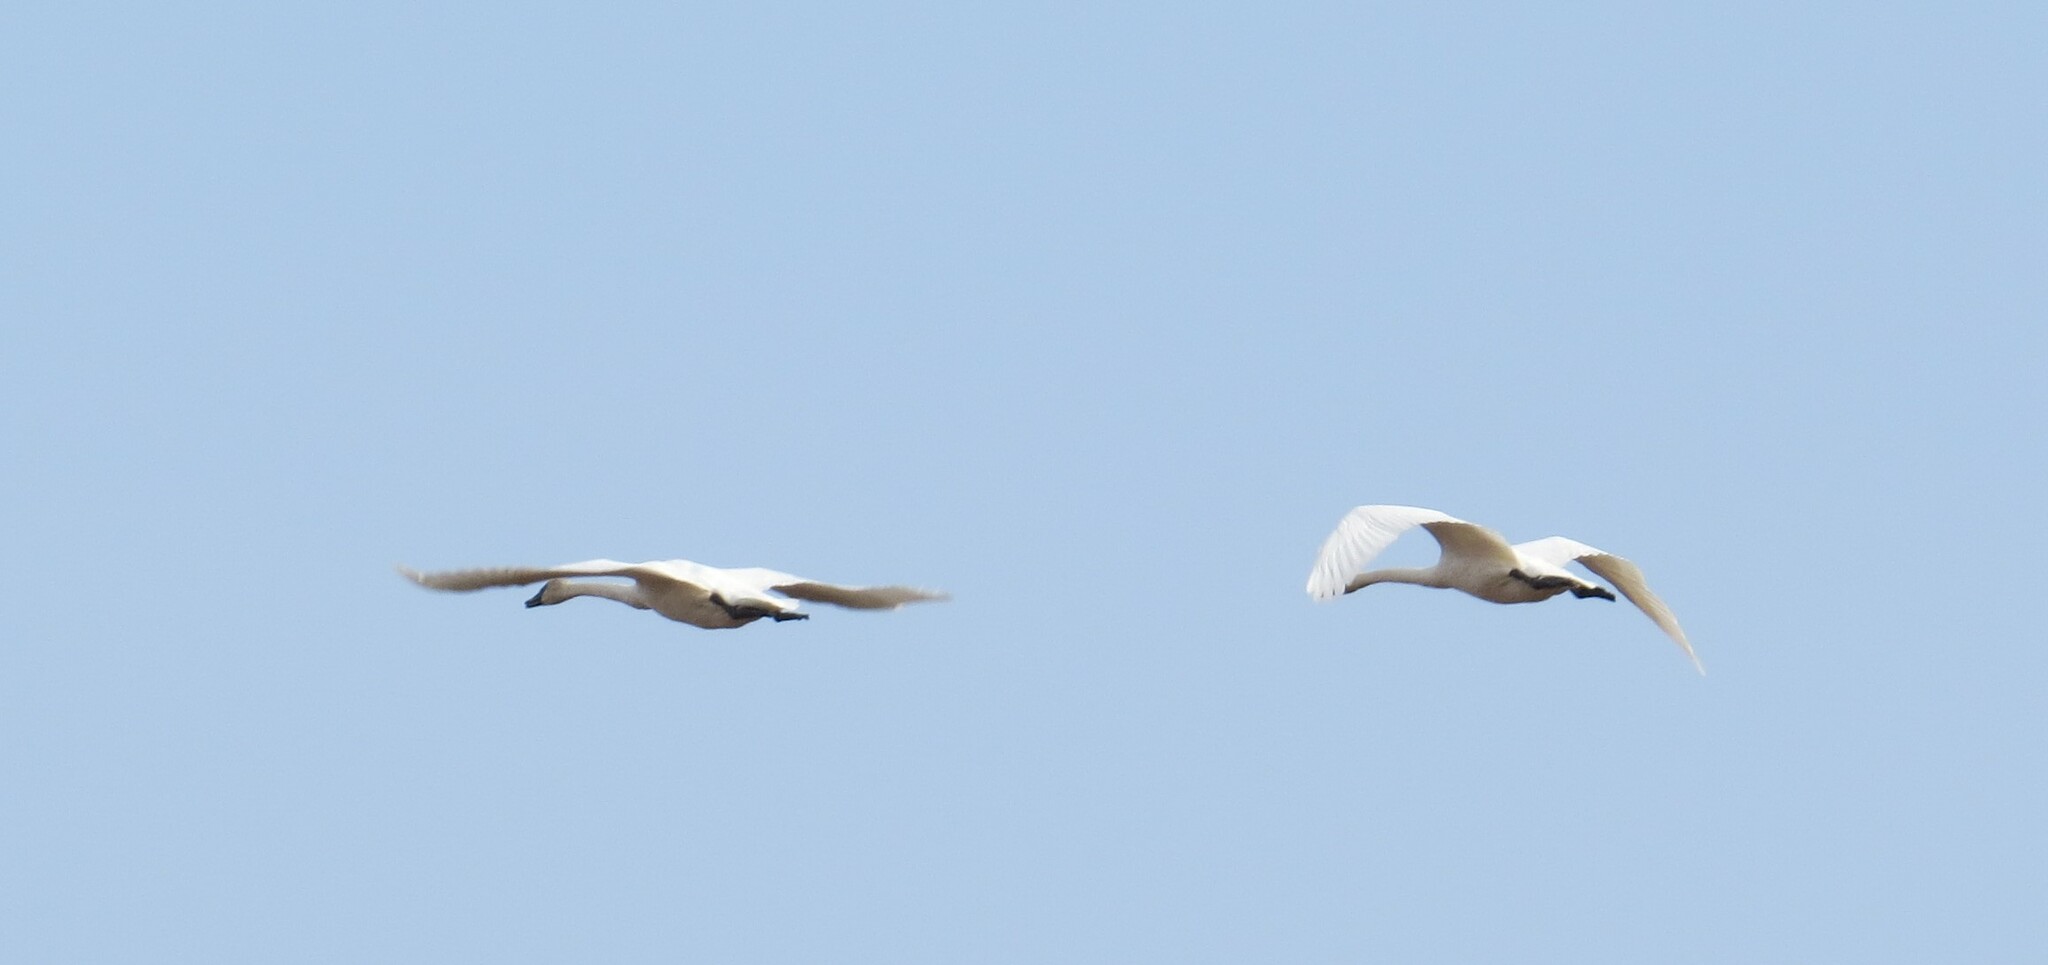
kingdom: Animalia
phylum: Chordata
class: Aves
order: Anseriformes
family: Anatidae
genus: Cygnus
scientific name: Cygnus buccinator
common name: Trumpeter swan
